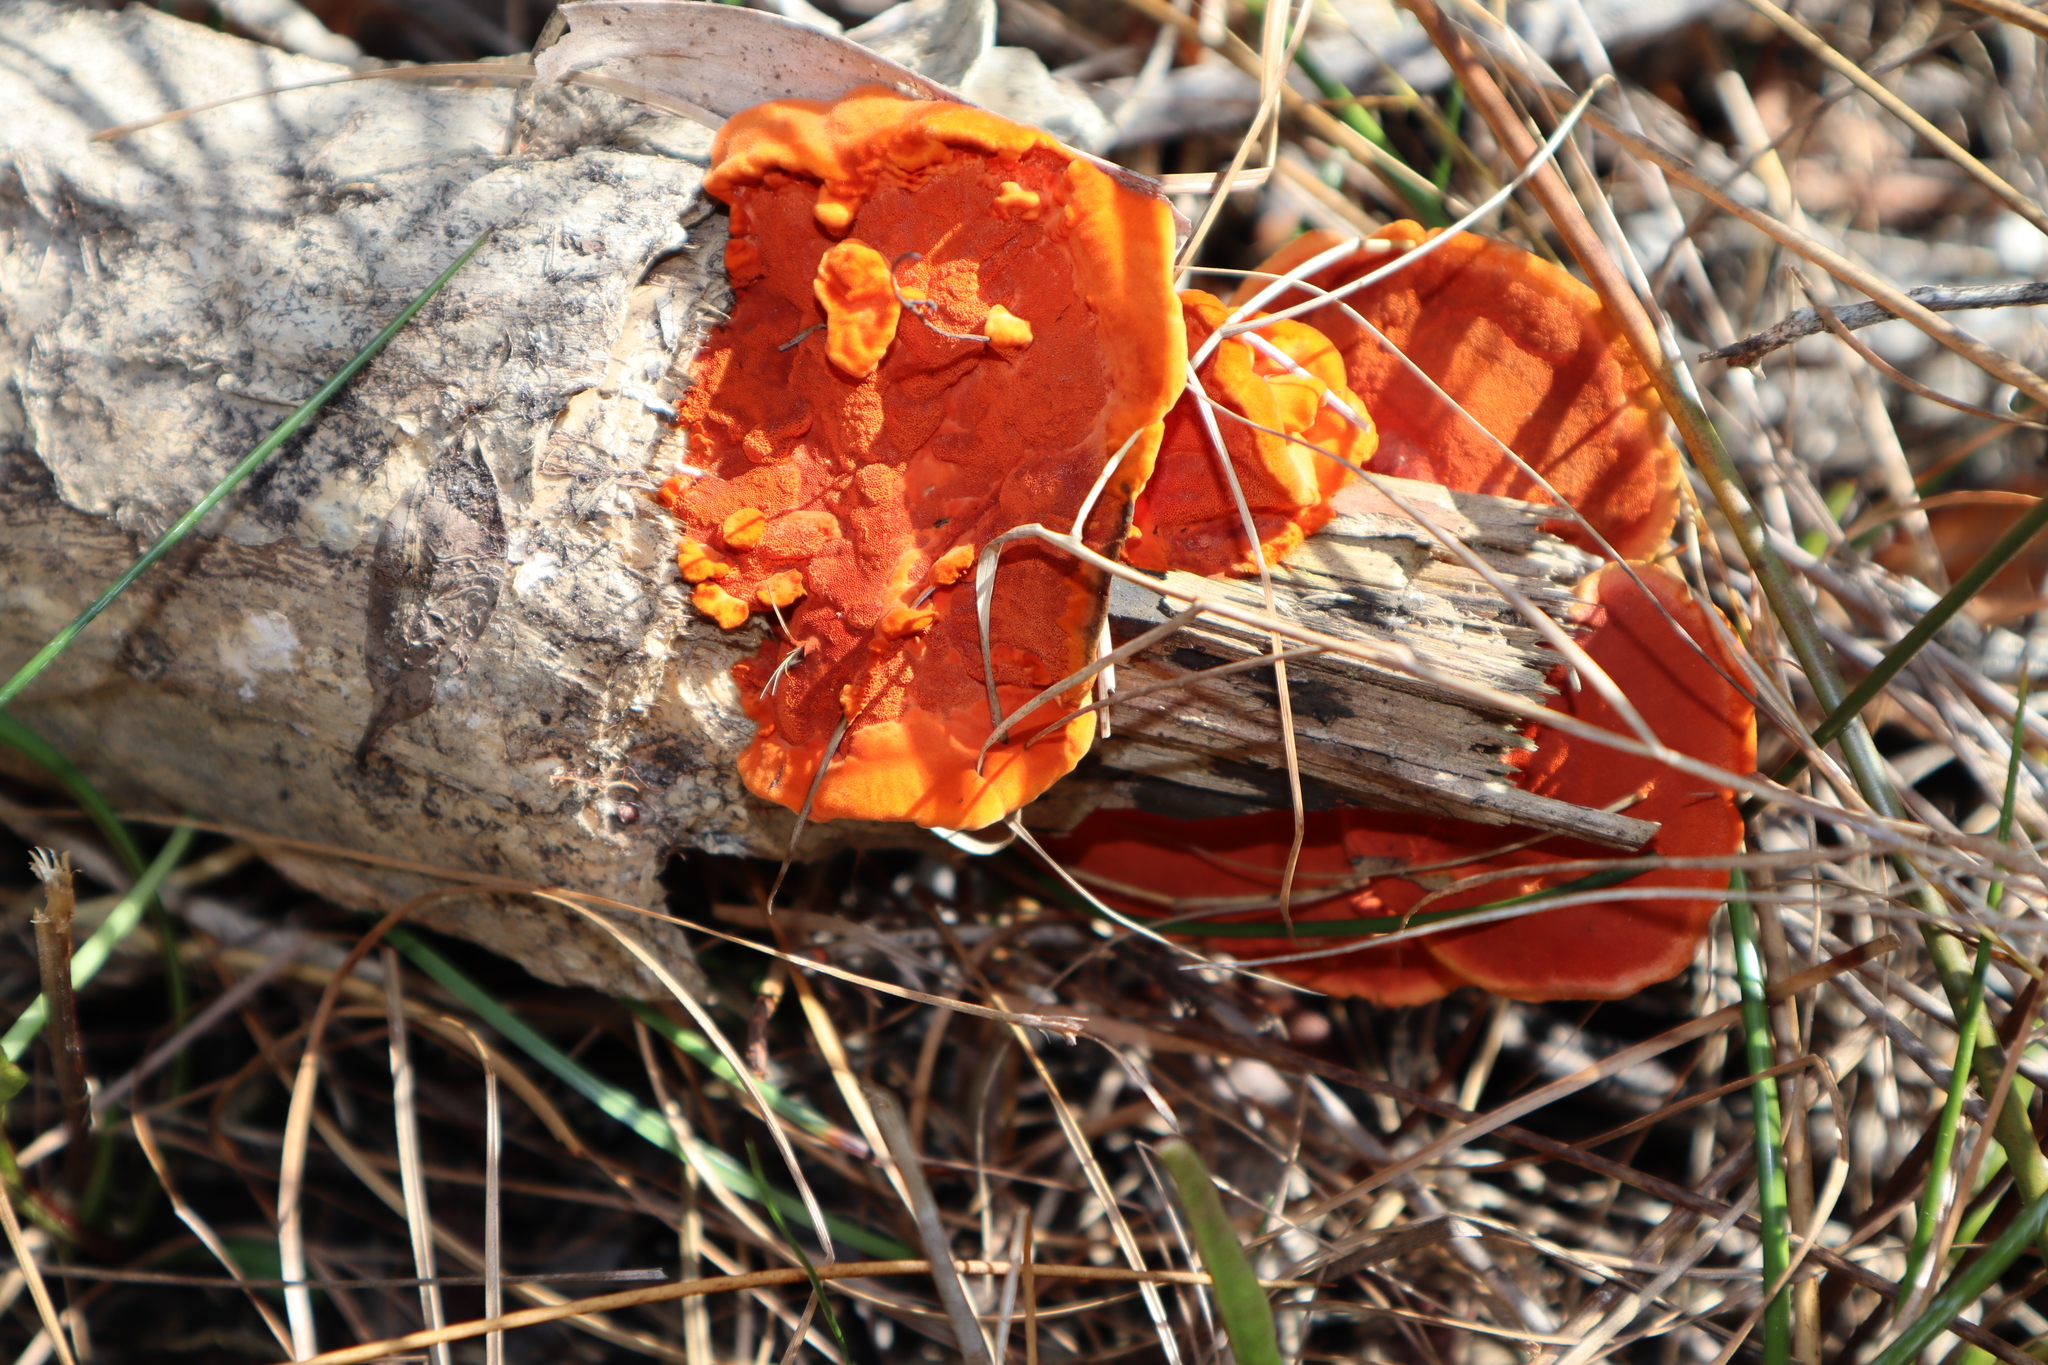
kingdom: Fungi
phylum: Basidiomycota
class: Agaricomycetes
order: Polyporales
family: Polyporaceae
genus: Trametes
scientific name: Trametes cinnabarina
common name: Northern cinnabar polypore
